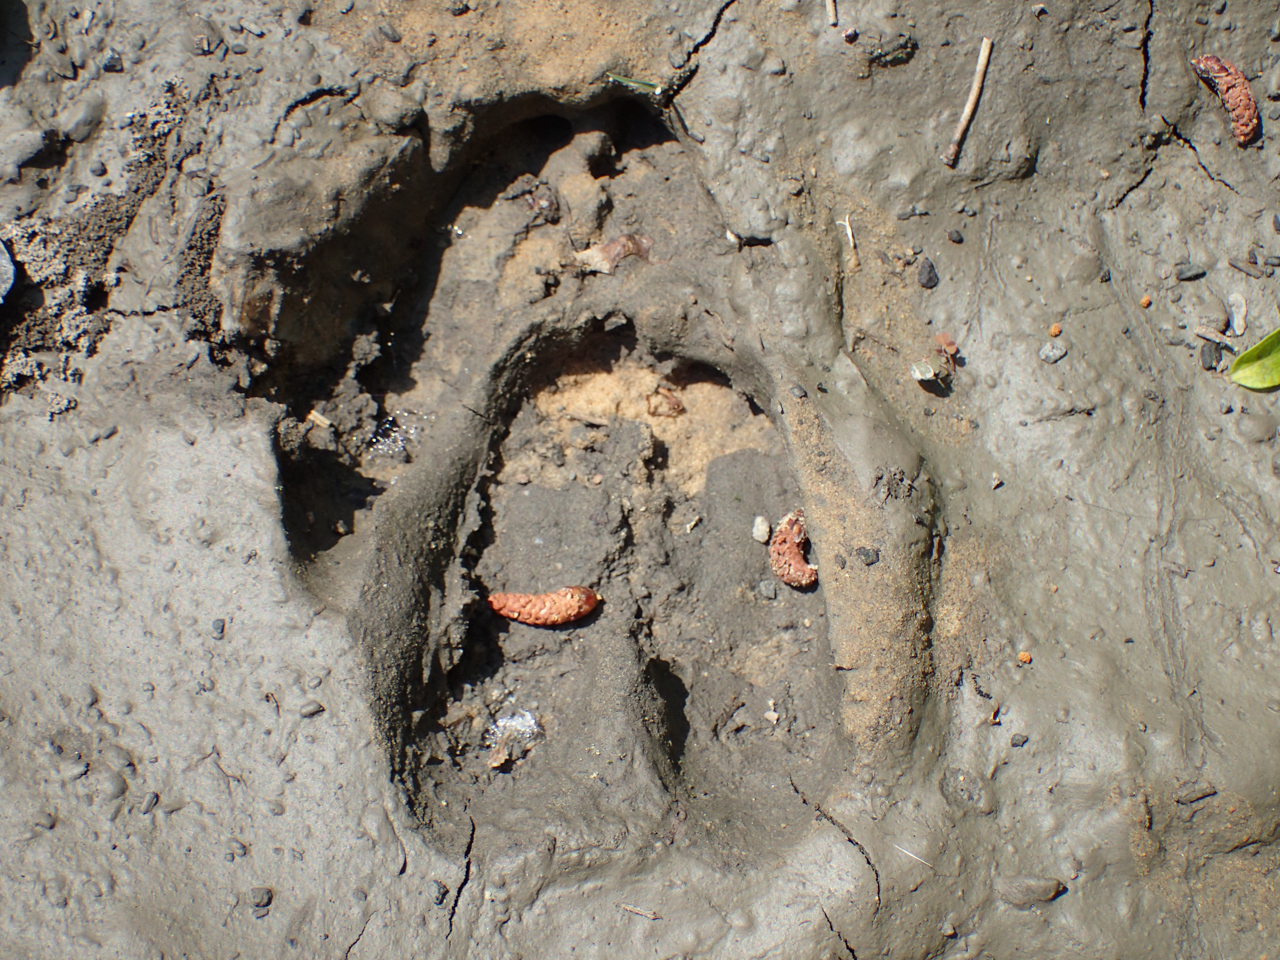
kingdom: Animalia
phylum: Chordata
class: Mammalia
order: Artiodactyla
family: Cervidae
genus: Odocoileus
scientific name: Odocoileus virginianus
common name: White-tailed deer
